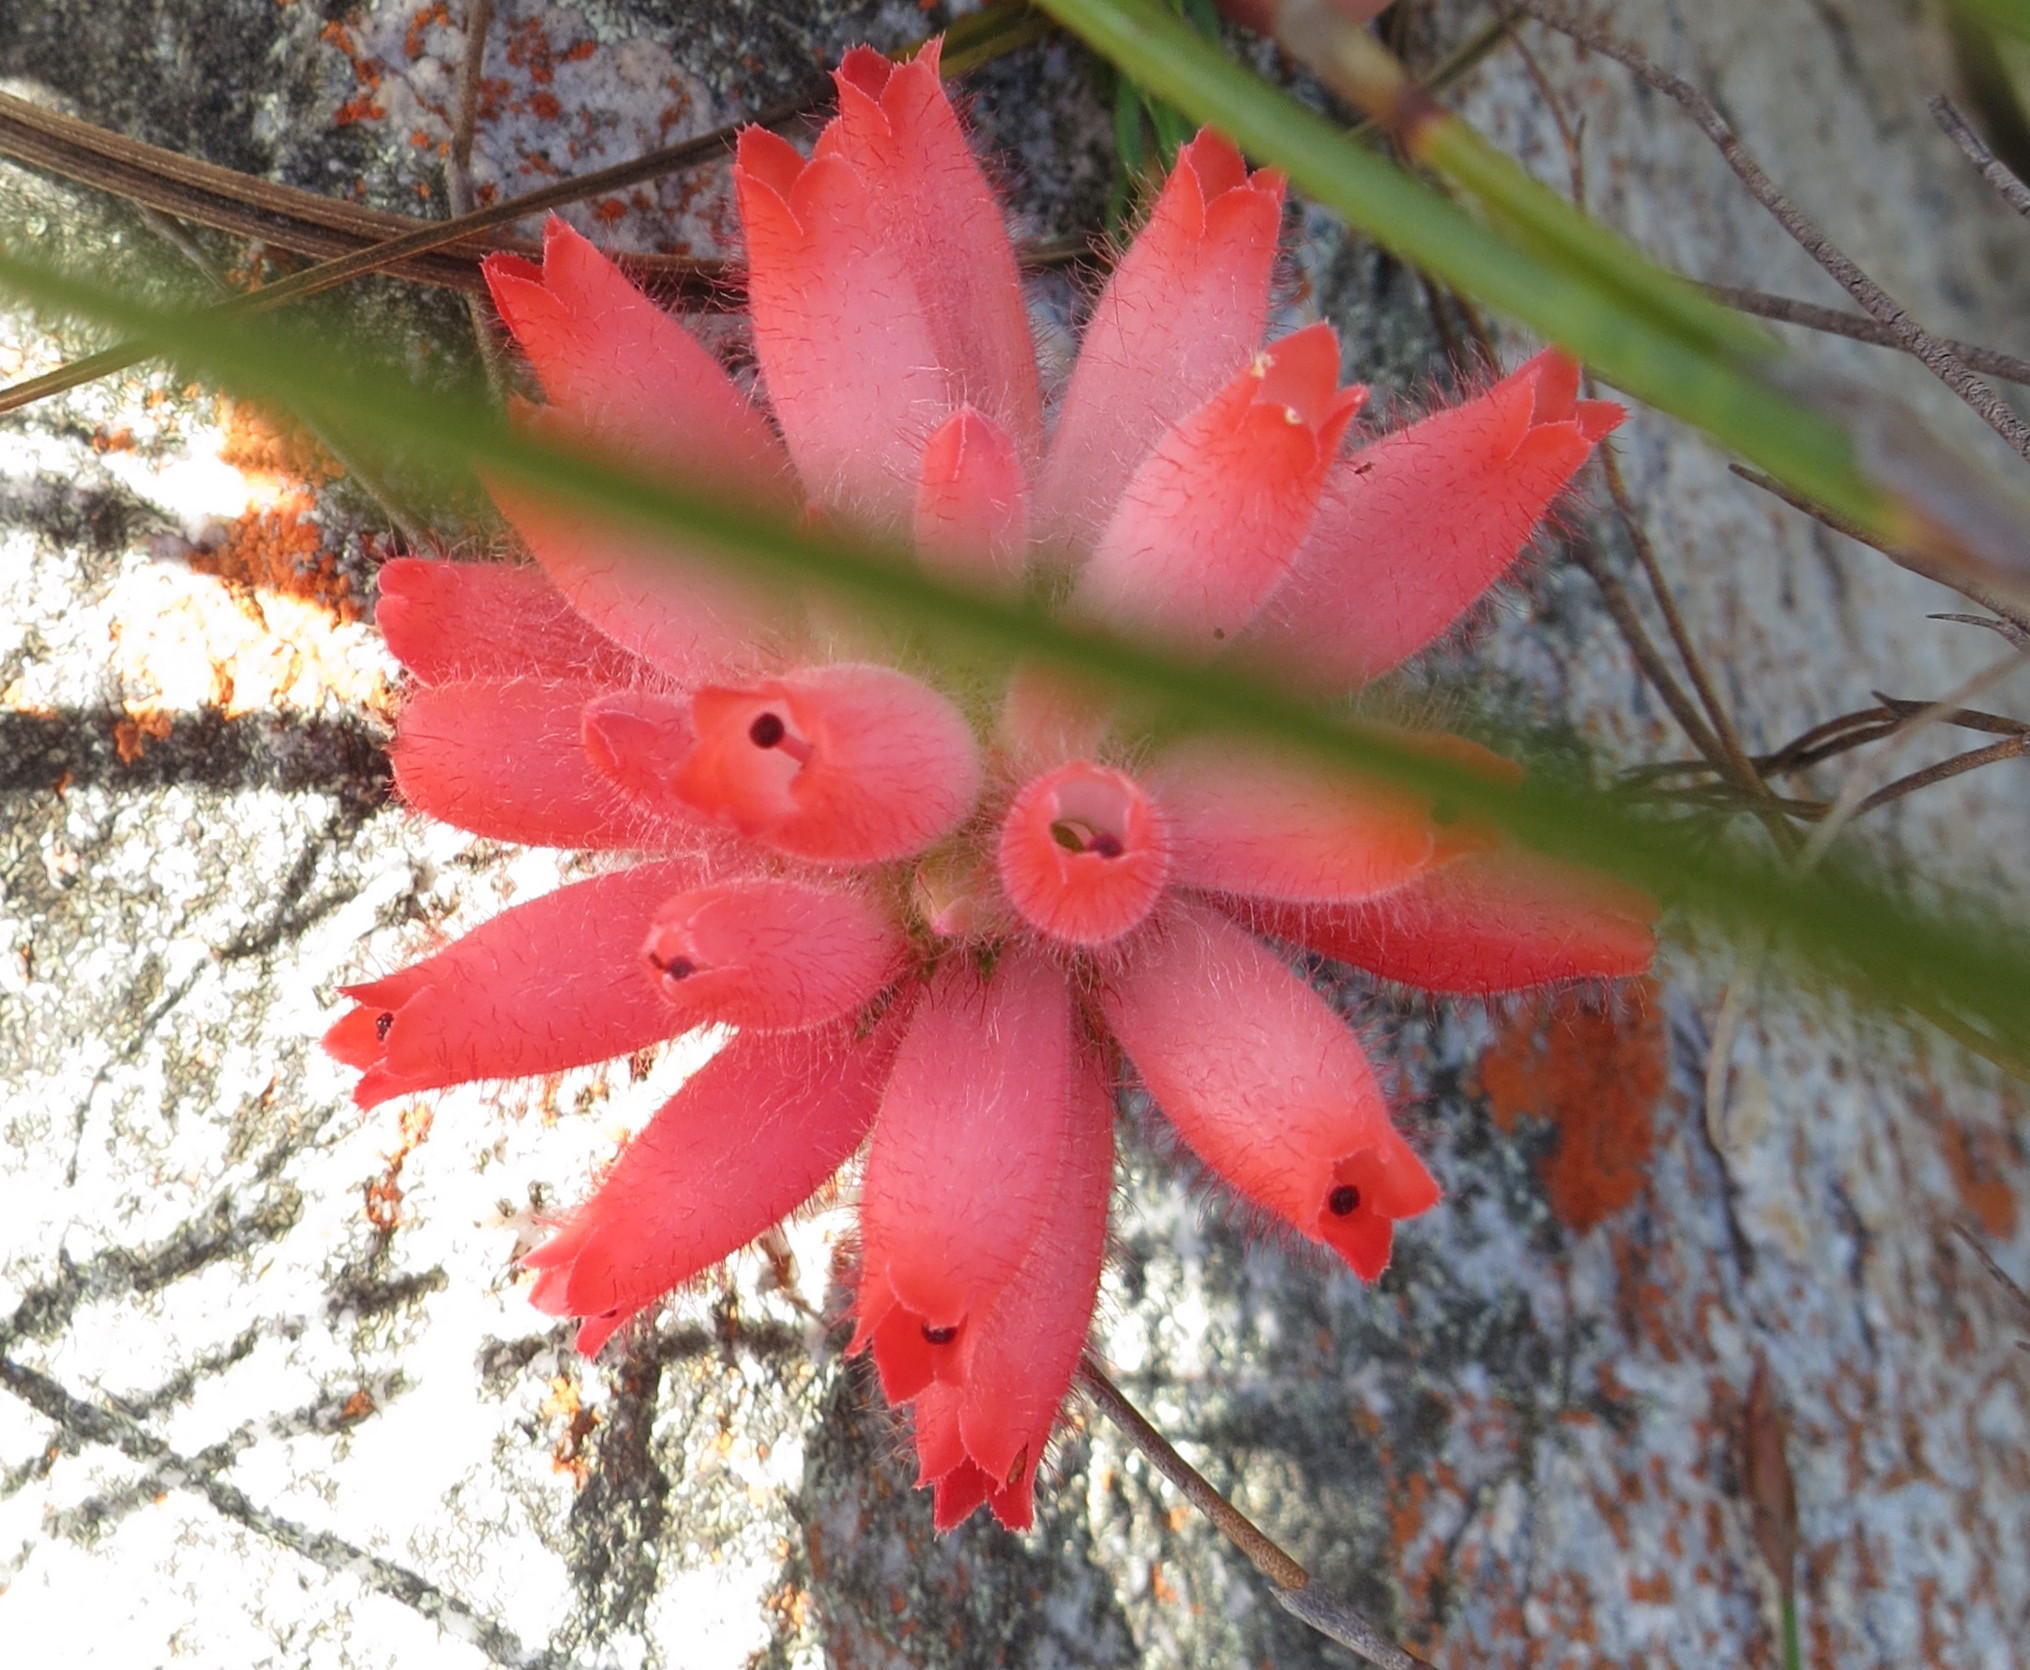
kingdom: Plantae
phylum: Tracheophyta
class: Magnoliopsida
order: Ericales
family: Ericaceae
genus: Erica
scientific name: Erica cerinthoides
